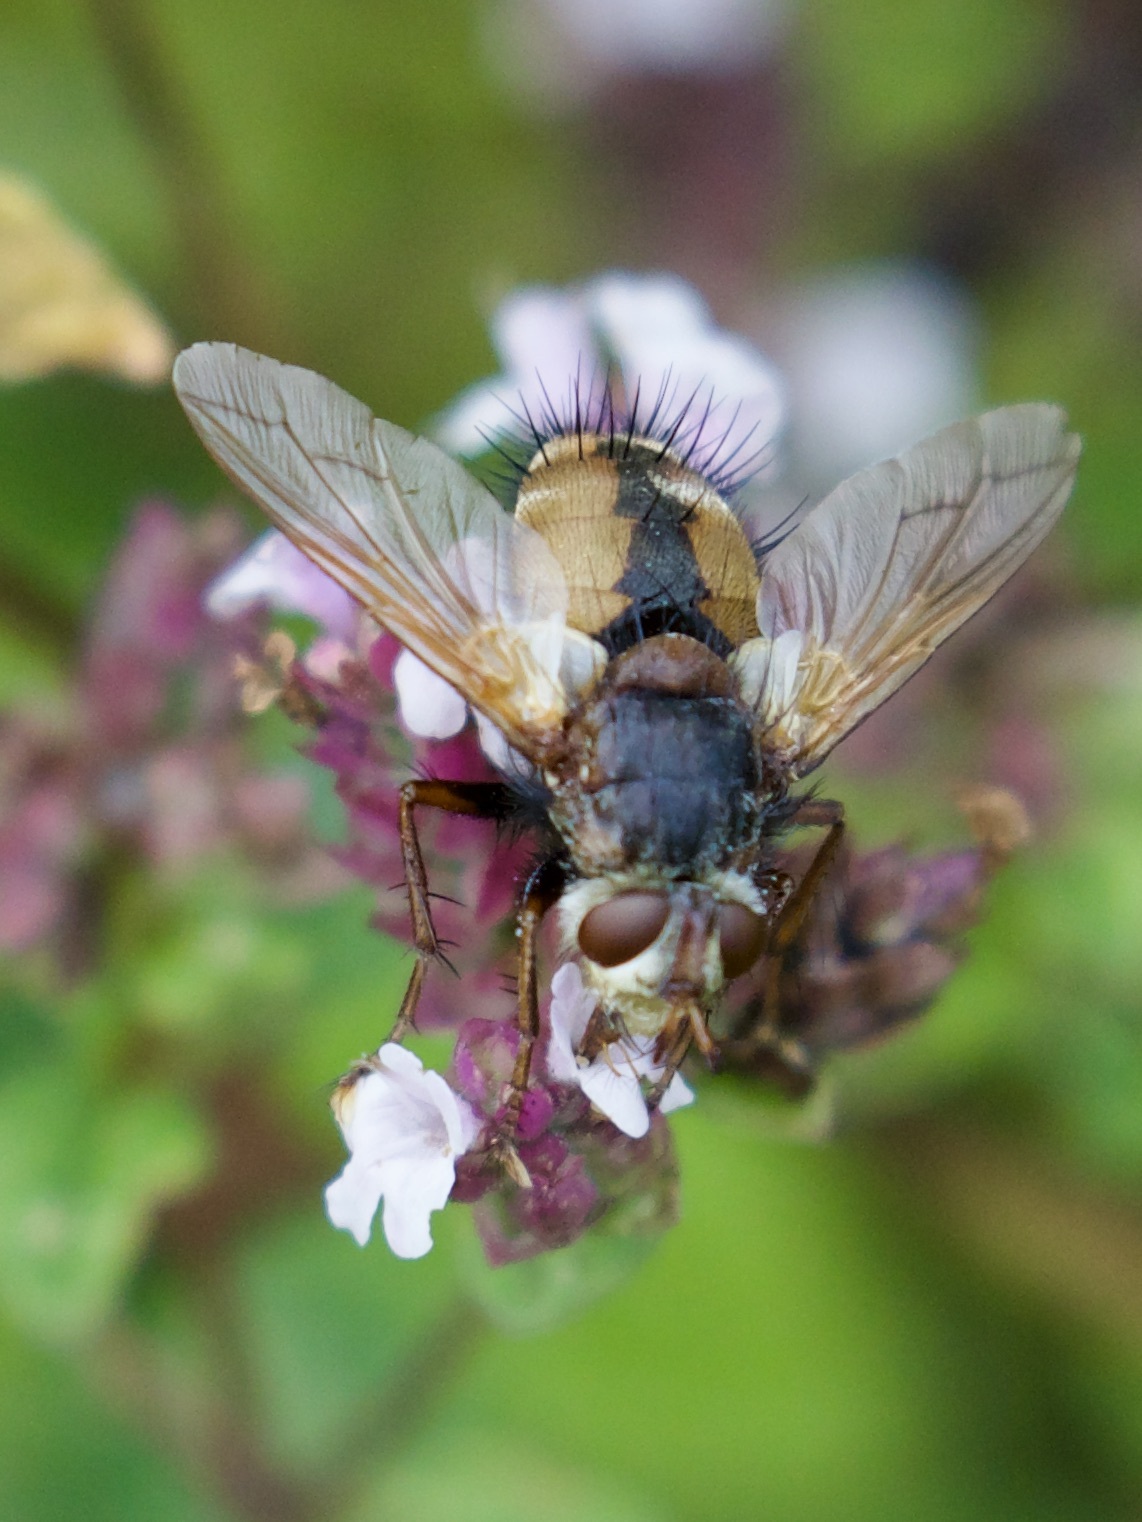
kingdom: Animalia
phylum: Arthropoda
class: Insecta
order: Diptera
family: Tachinidae
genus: Tachina
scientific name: Tachina fera
